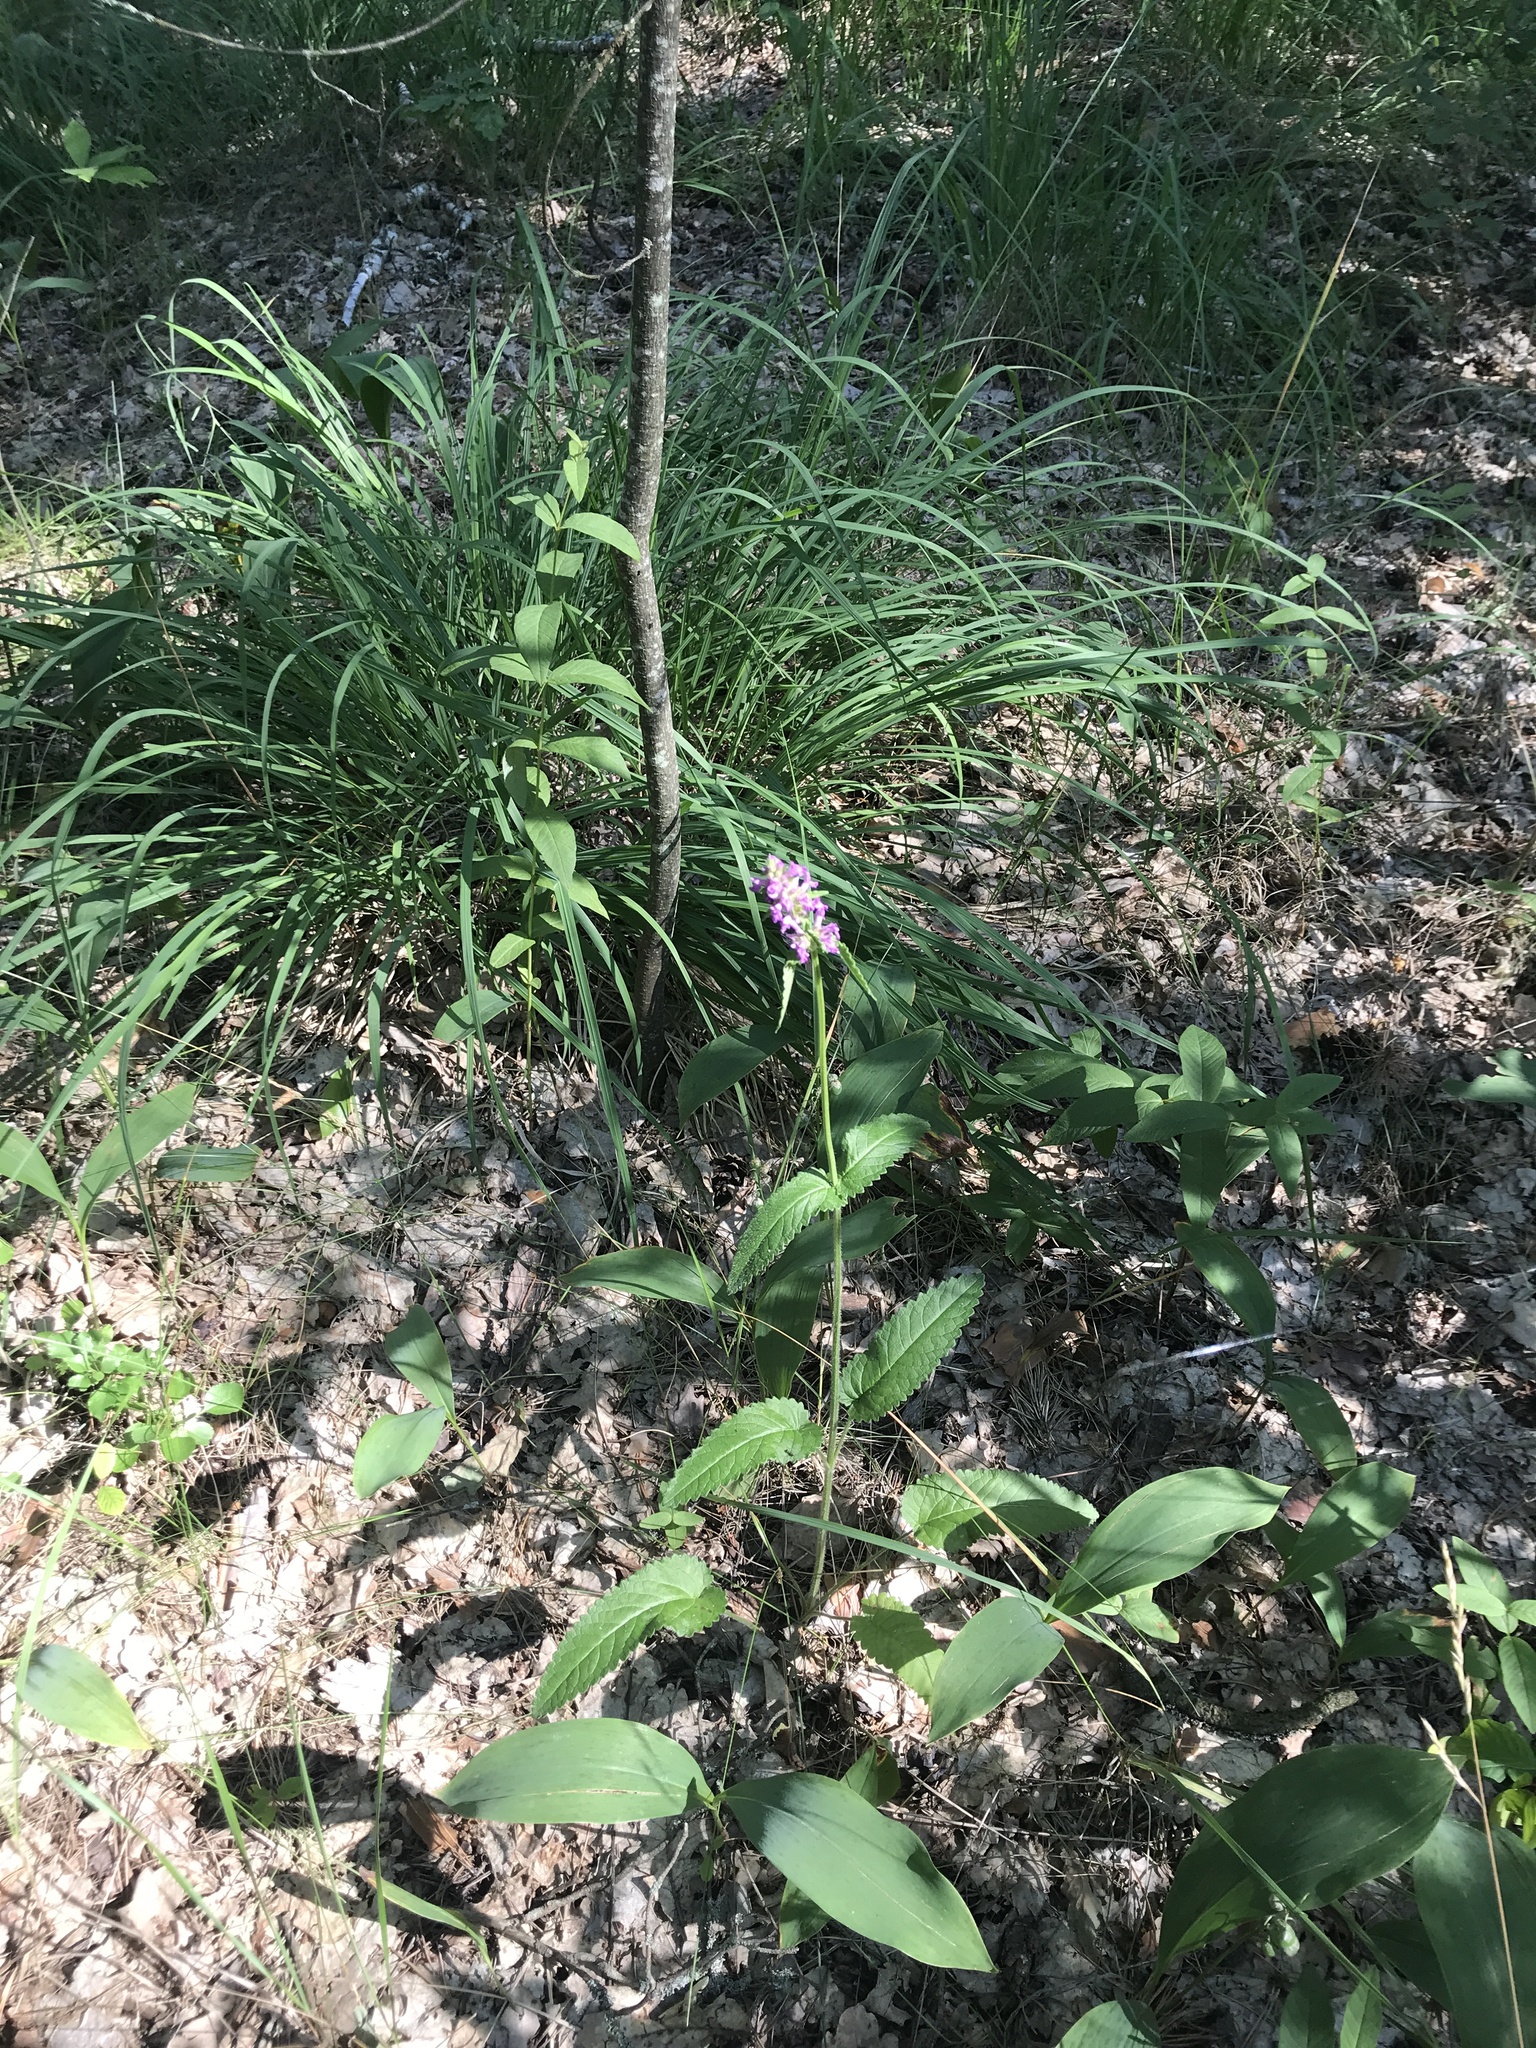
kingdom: Plantae
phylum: Tracheophyta
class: Magnoliopsida
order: Lamiales
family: Lamiaceae
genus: Betonica
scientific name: Betonica officinalis
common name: Bishop's-wort
